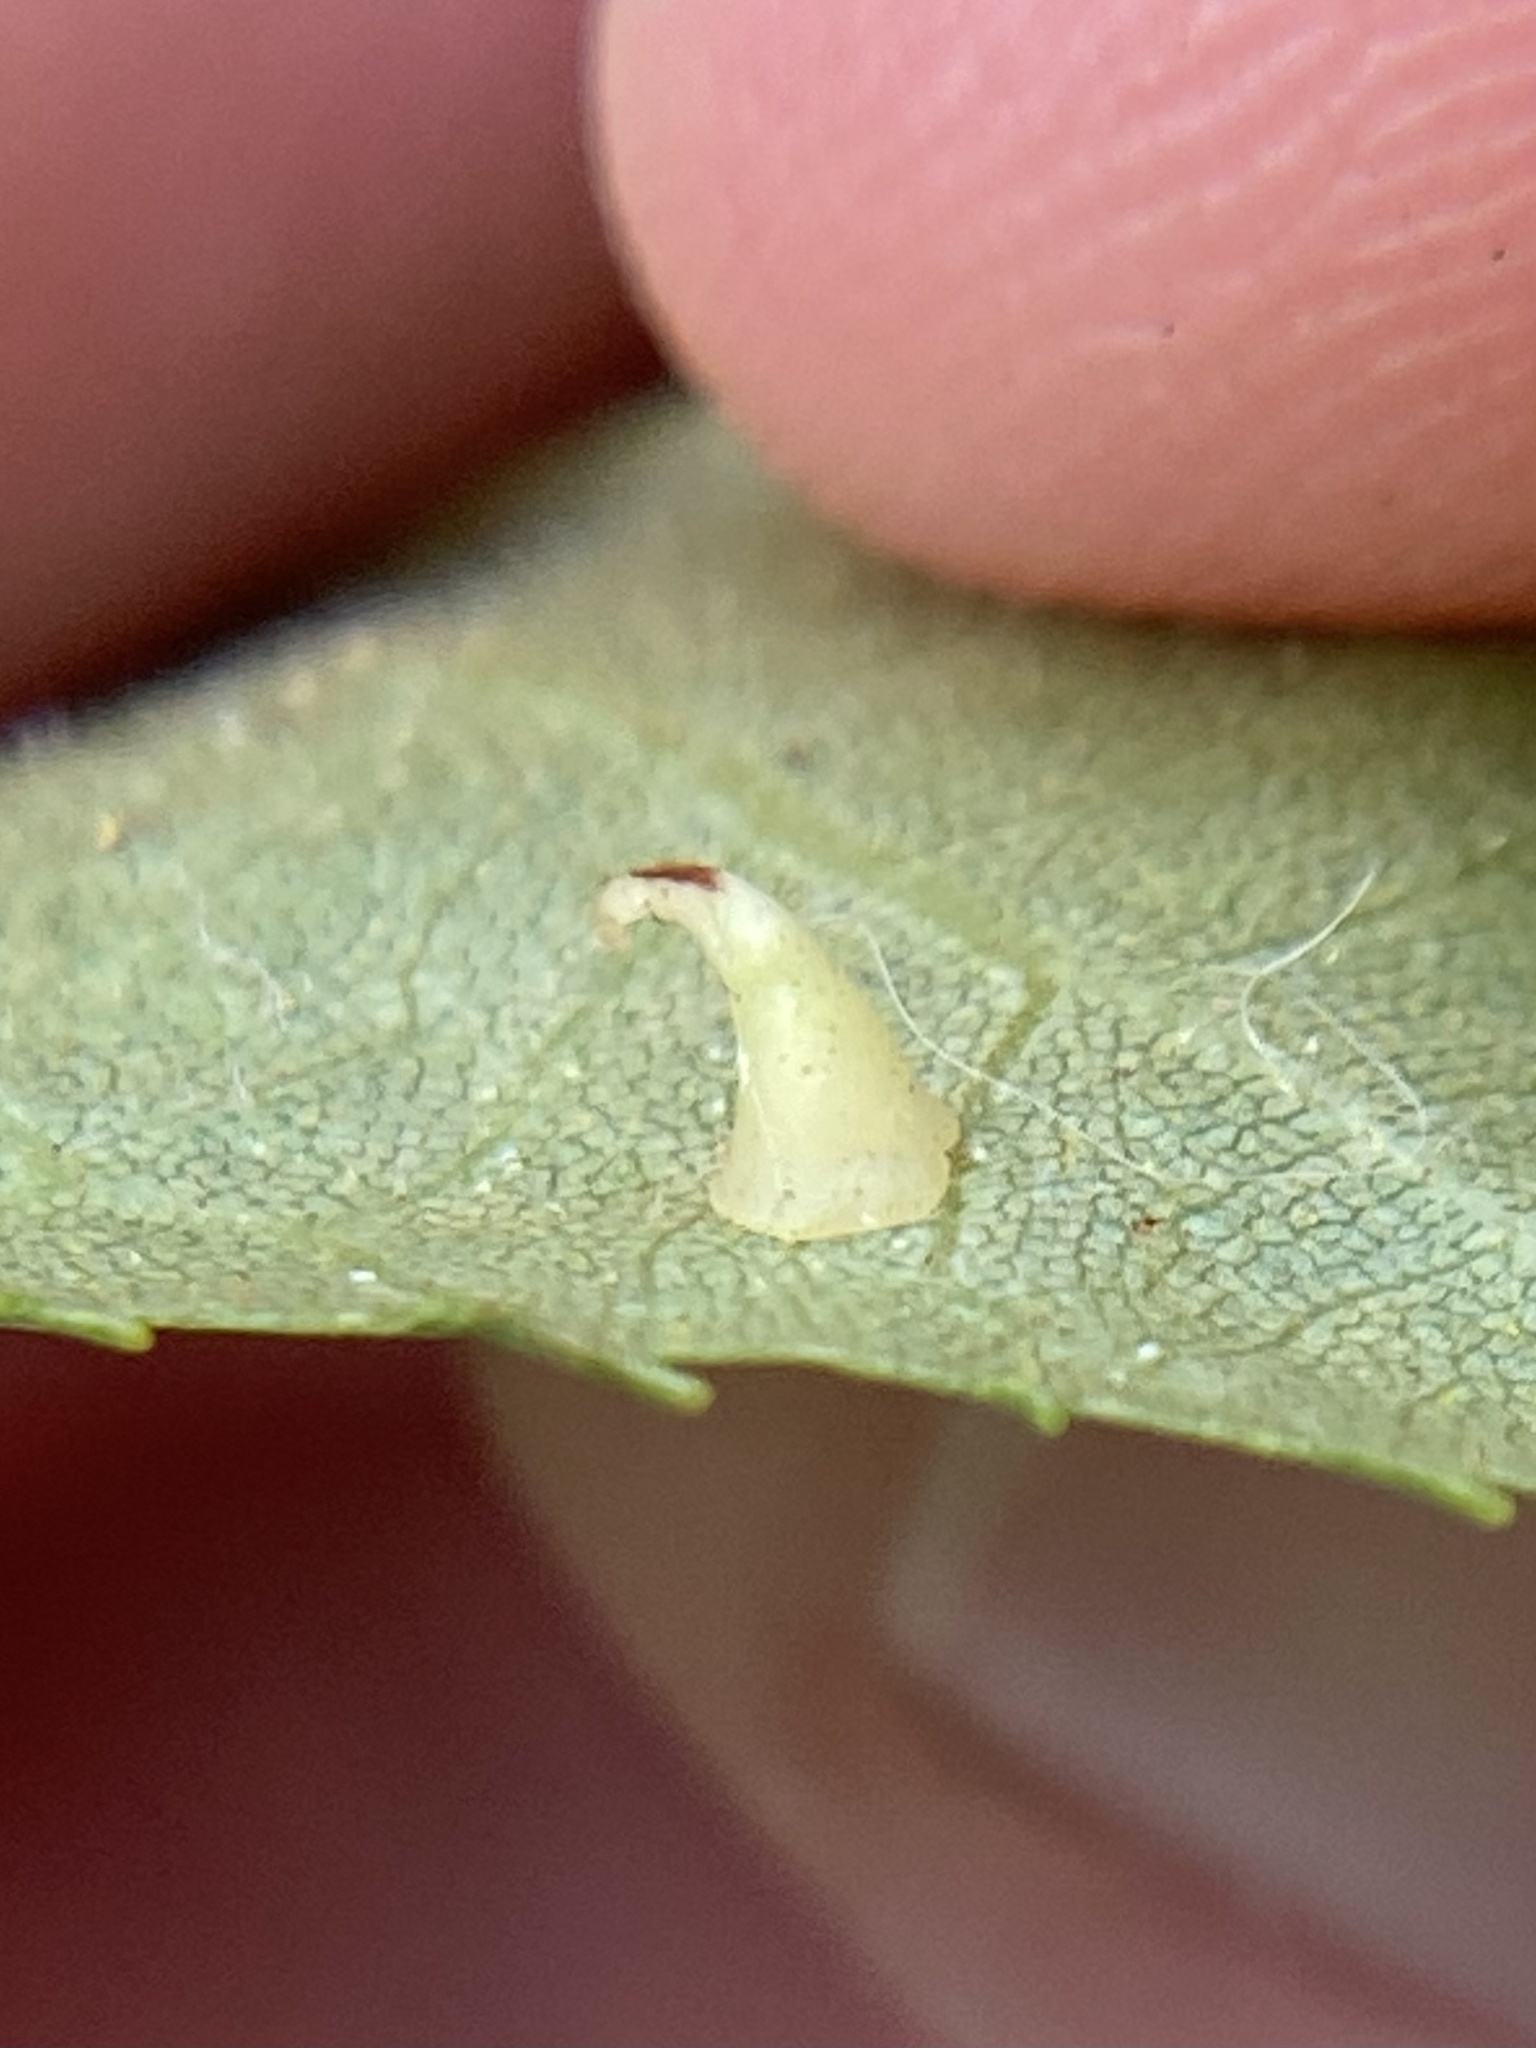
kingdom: Animalia
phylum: Arthropoda
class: Insecta
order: Diptera
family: Cecidomyiidae
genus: Caryomyia
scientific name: Caryomyia sanguinolenta
